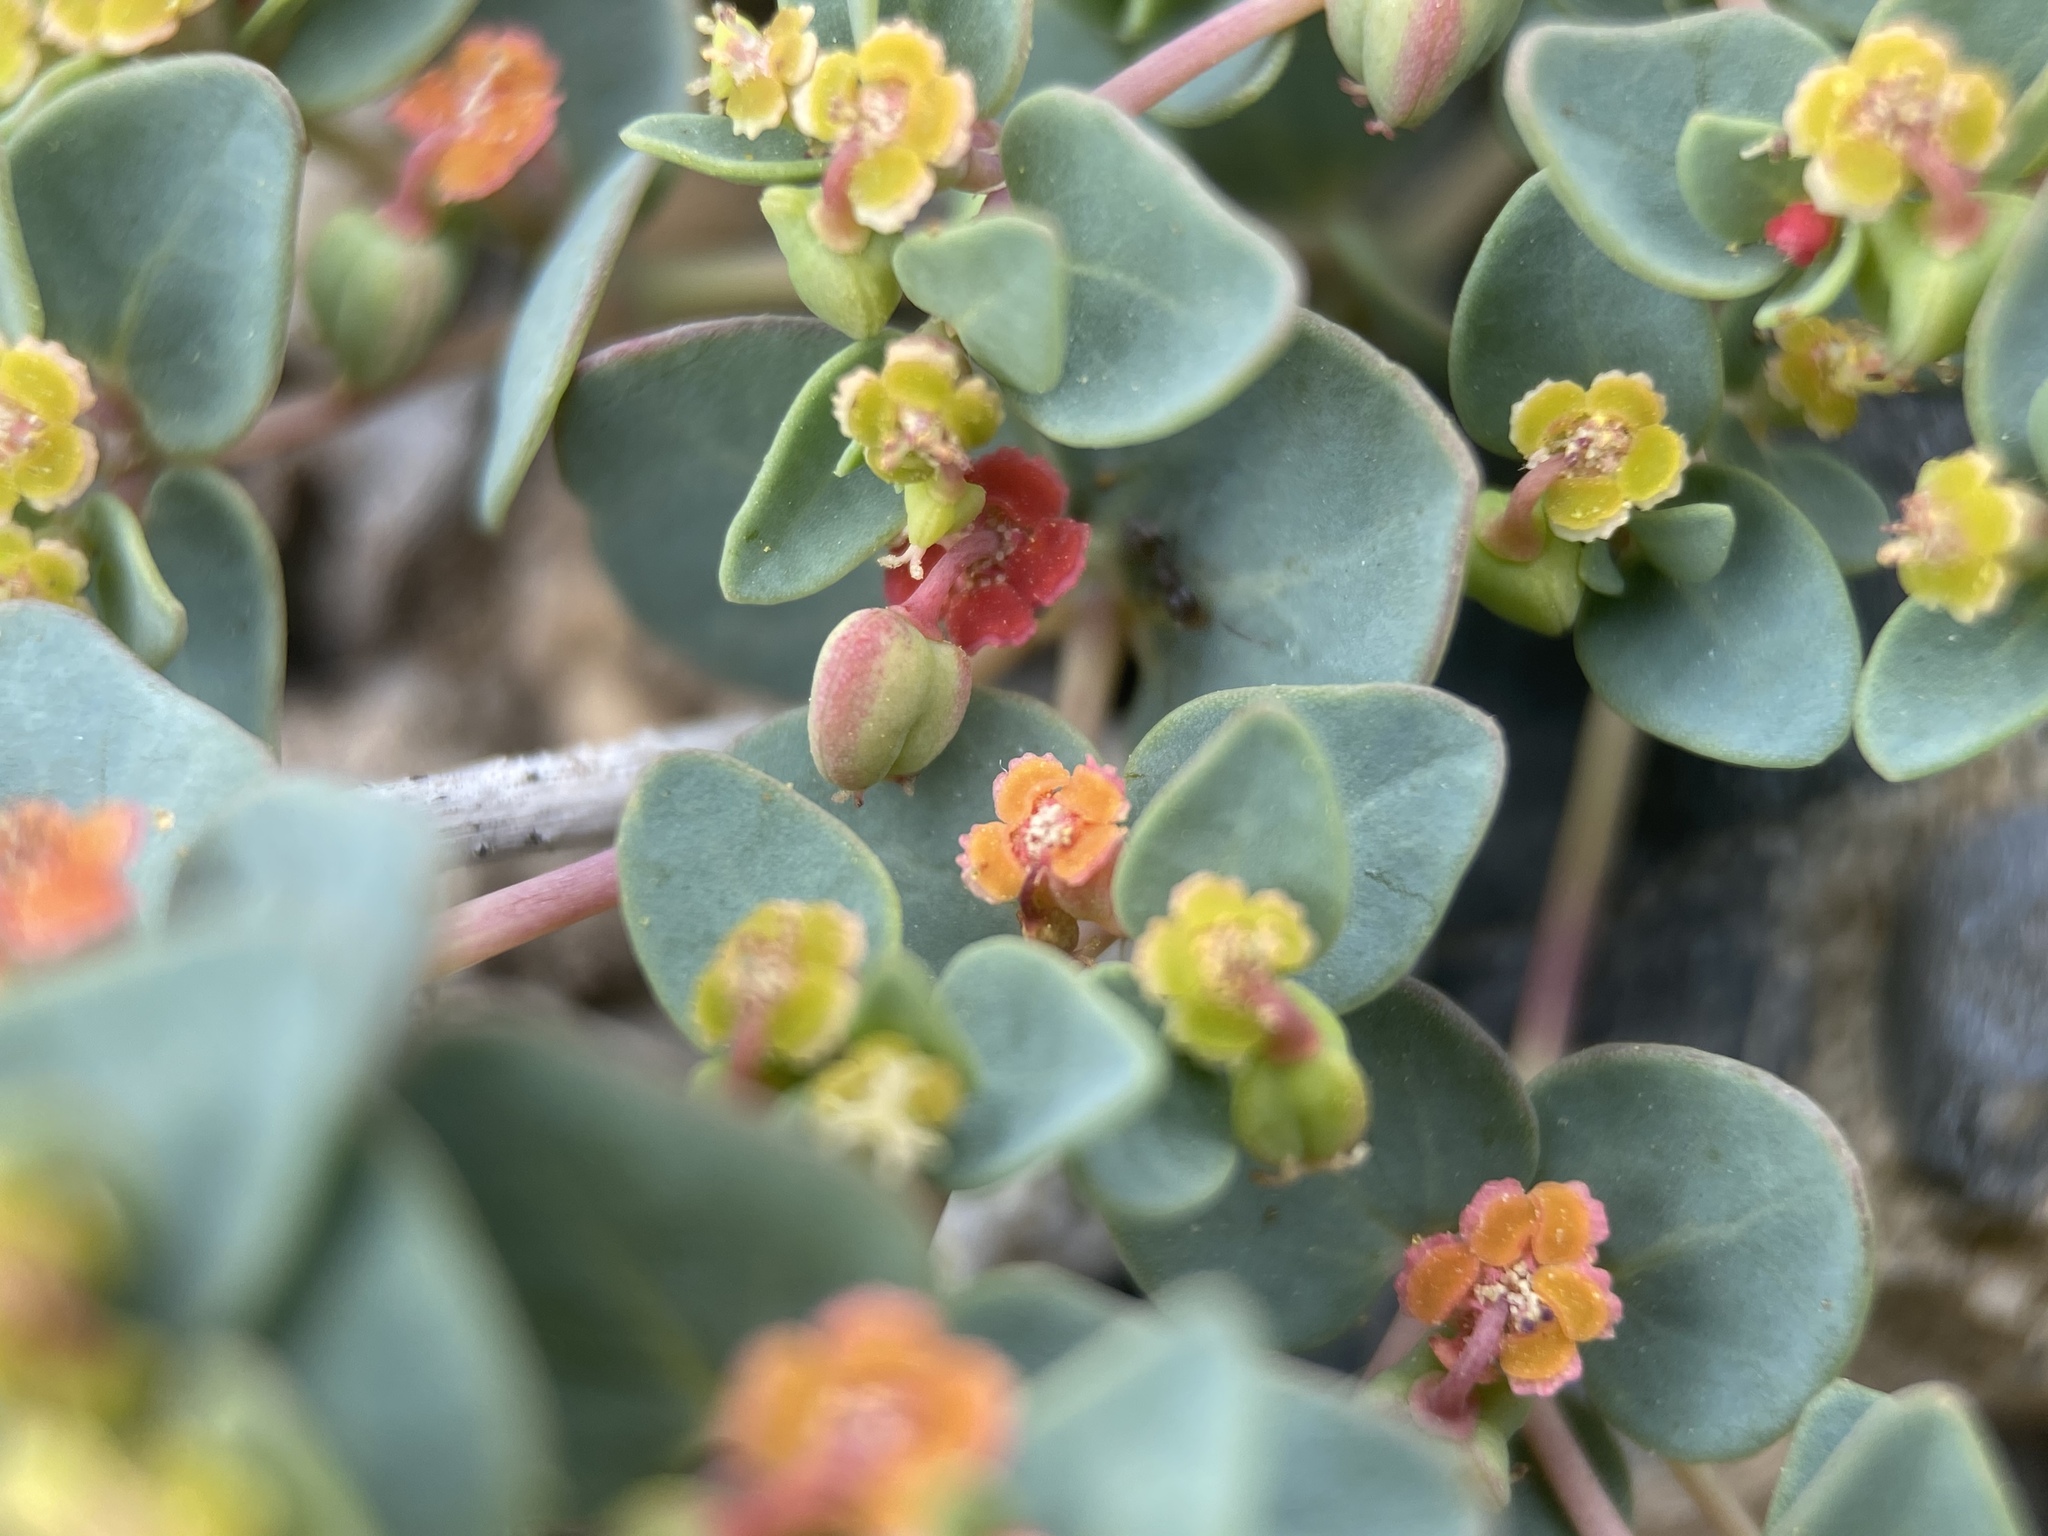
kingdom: Plantae
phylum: Tracheophyta
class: Magnoliopsida
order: Malpighiales
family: Euphorbiaceae
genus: Euphorbia
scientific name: Euphorbia fendleri
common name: Fendler's euphorbia
